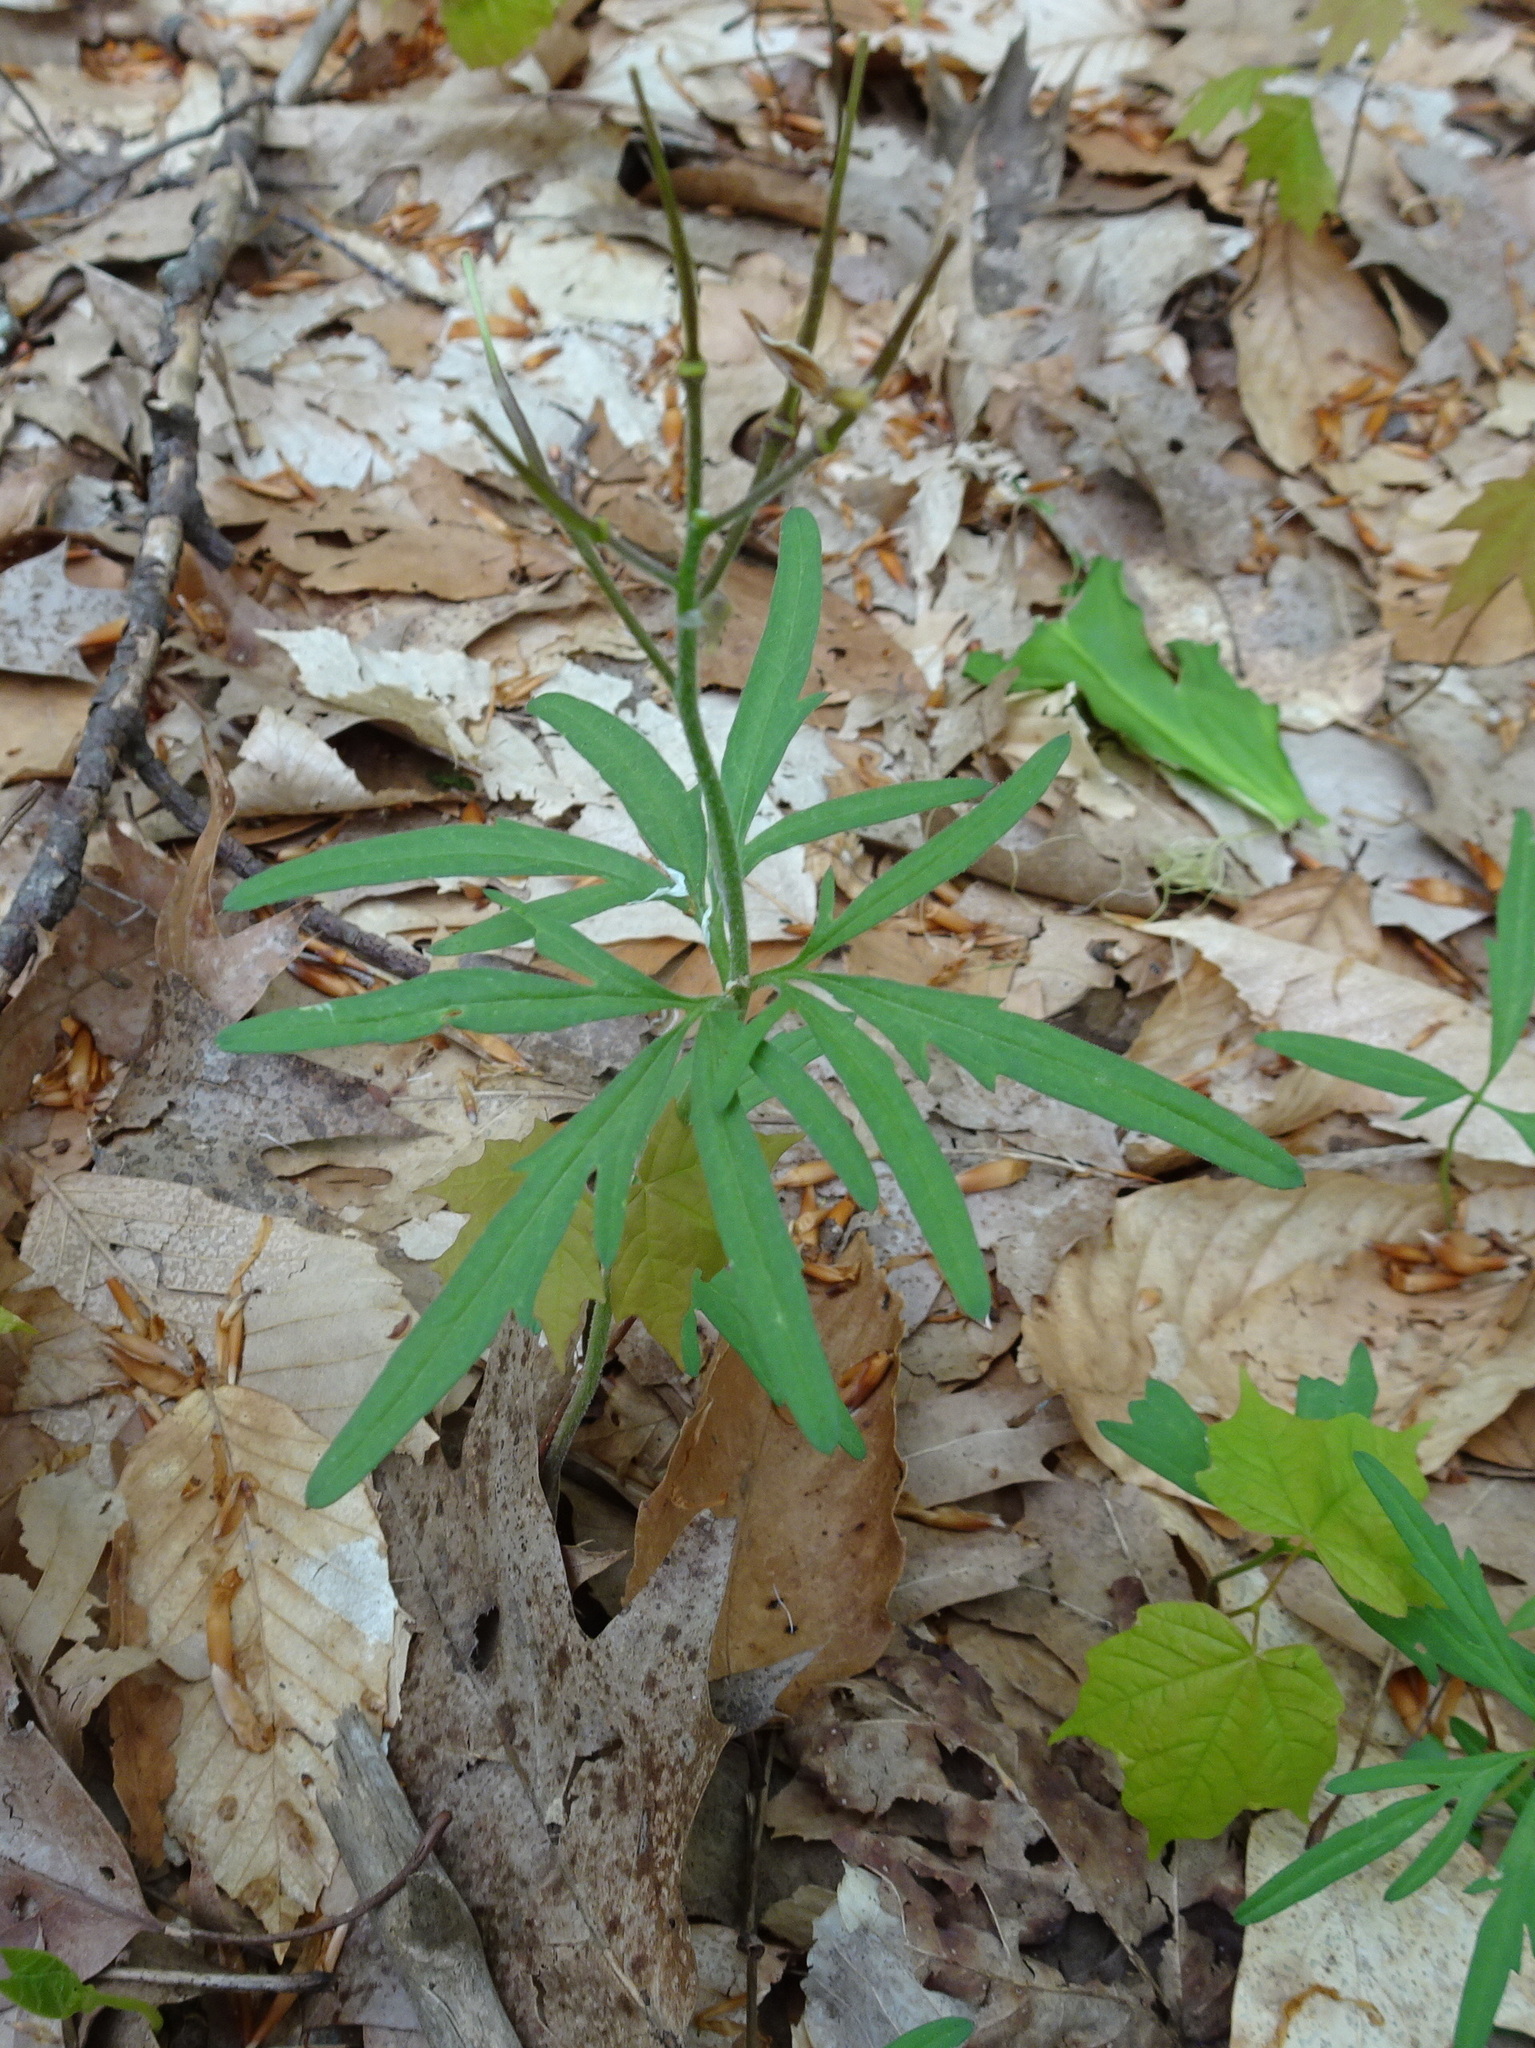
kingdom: Plantae
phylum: Tracheophyta
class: Magnoliopsida
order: Brassicales
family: Brassicaceae
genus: Cardamine
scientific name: Cardamine concatenata
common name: Cut-leaf toothcup
